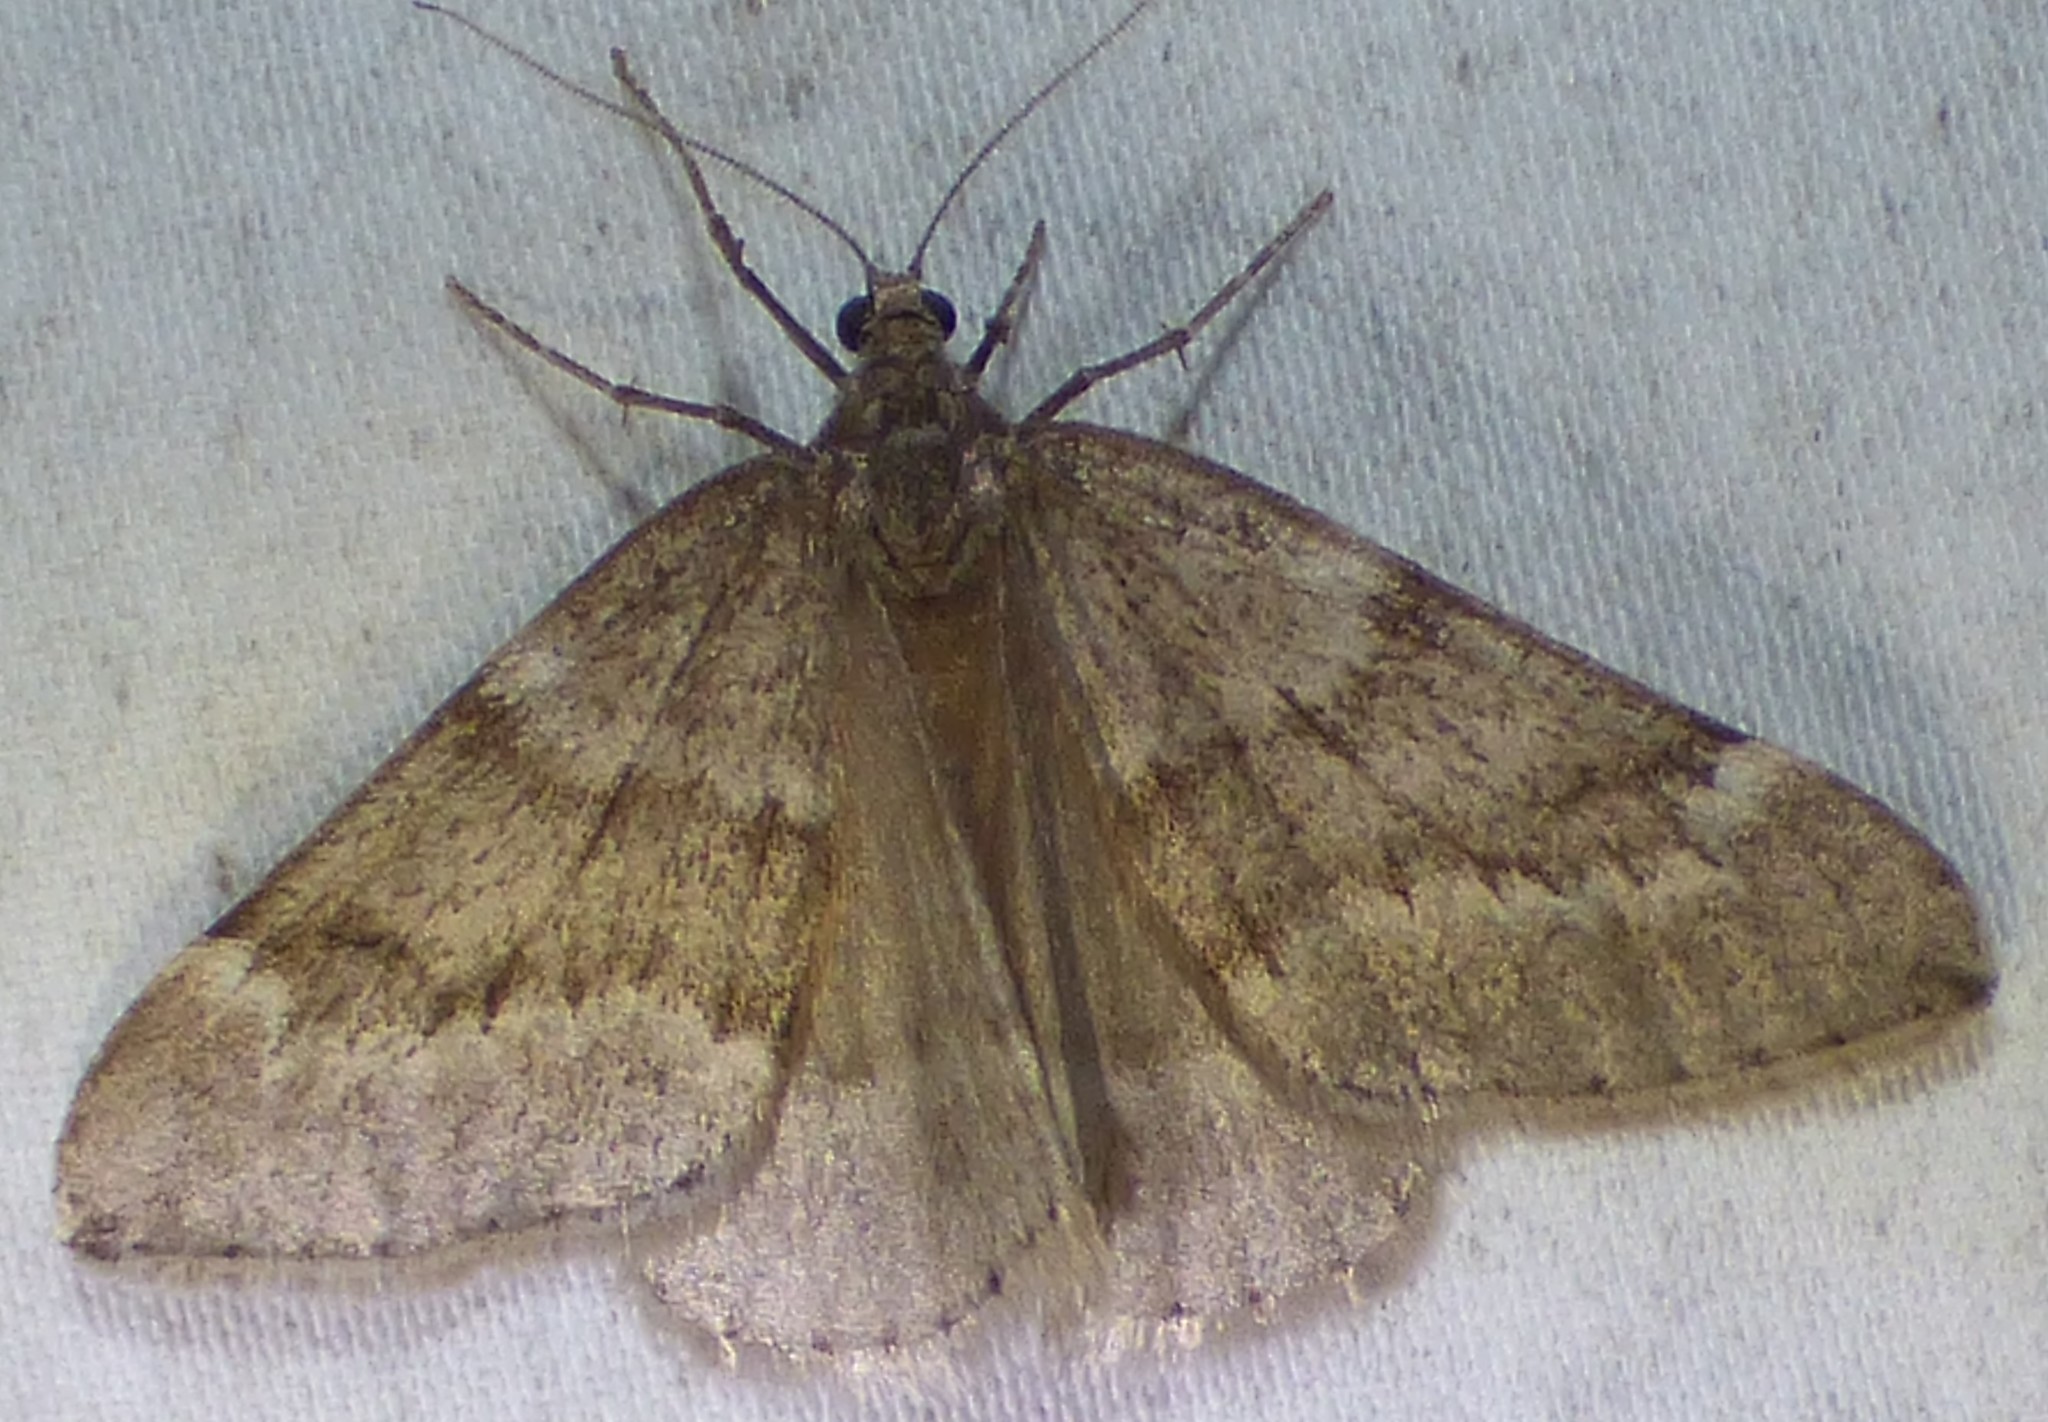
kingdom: Animalia
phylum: Arthropoda
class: Insecta
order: Lepidoptera
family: Geometridae
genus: Alsophila
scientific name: Alsophila pometaria
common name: Fall cankerworm
